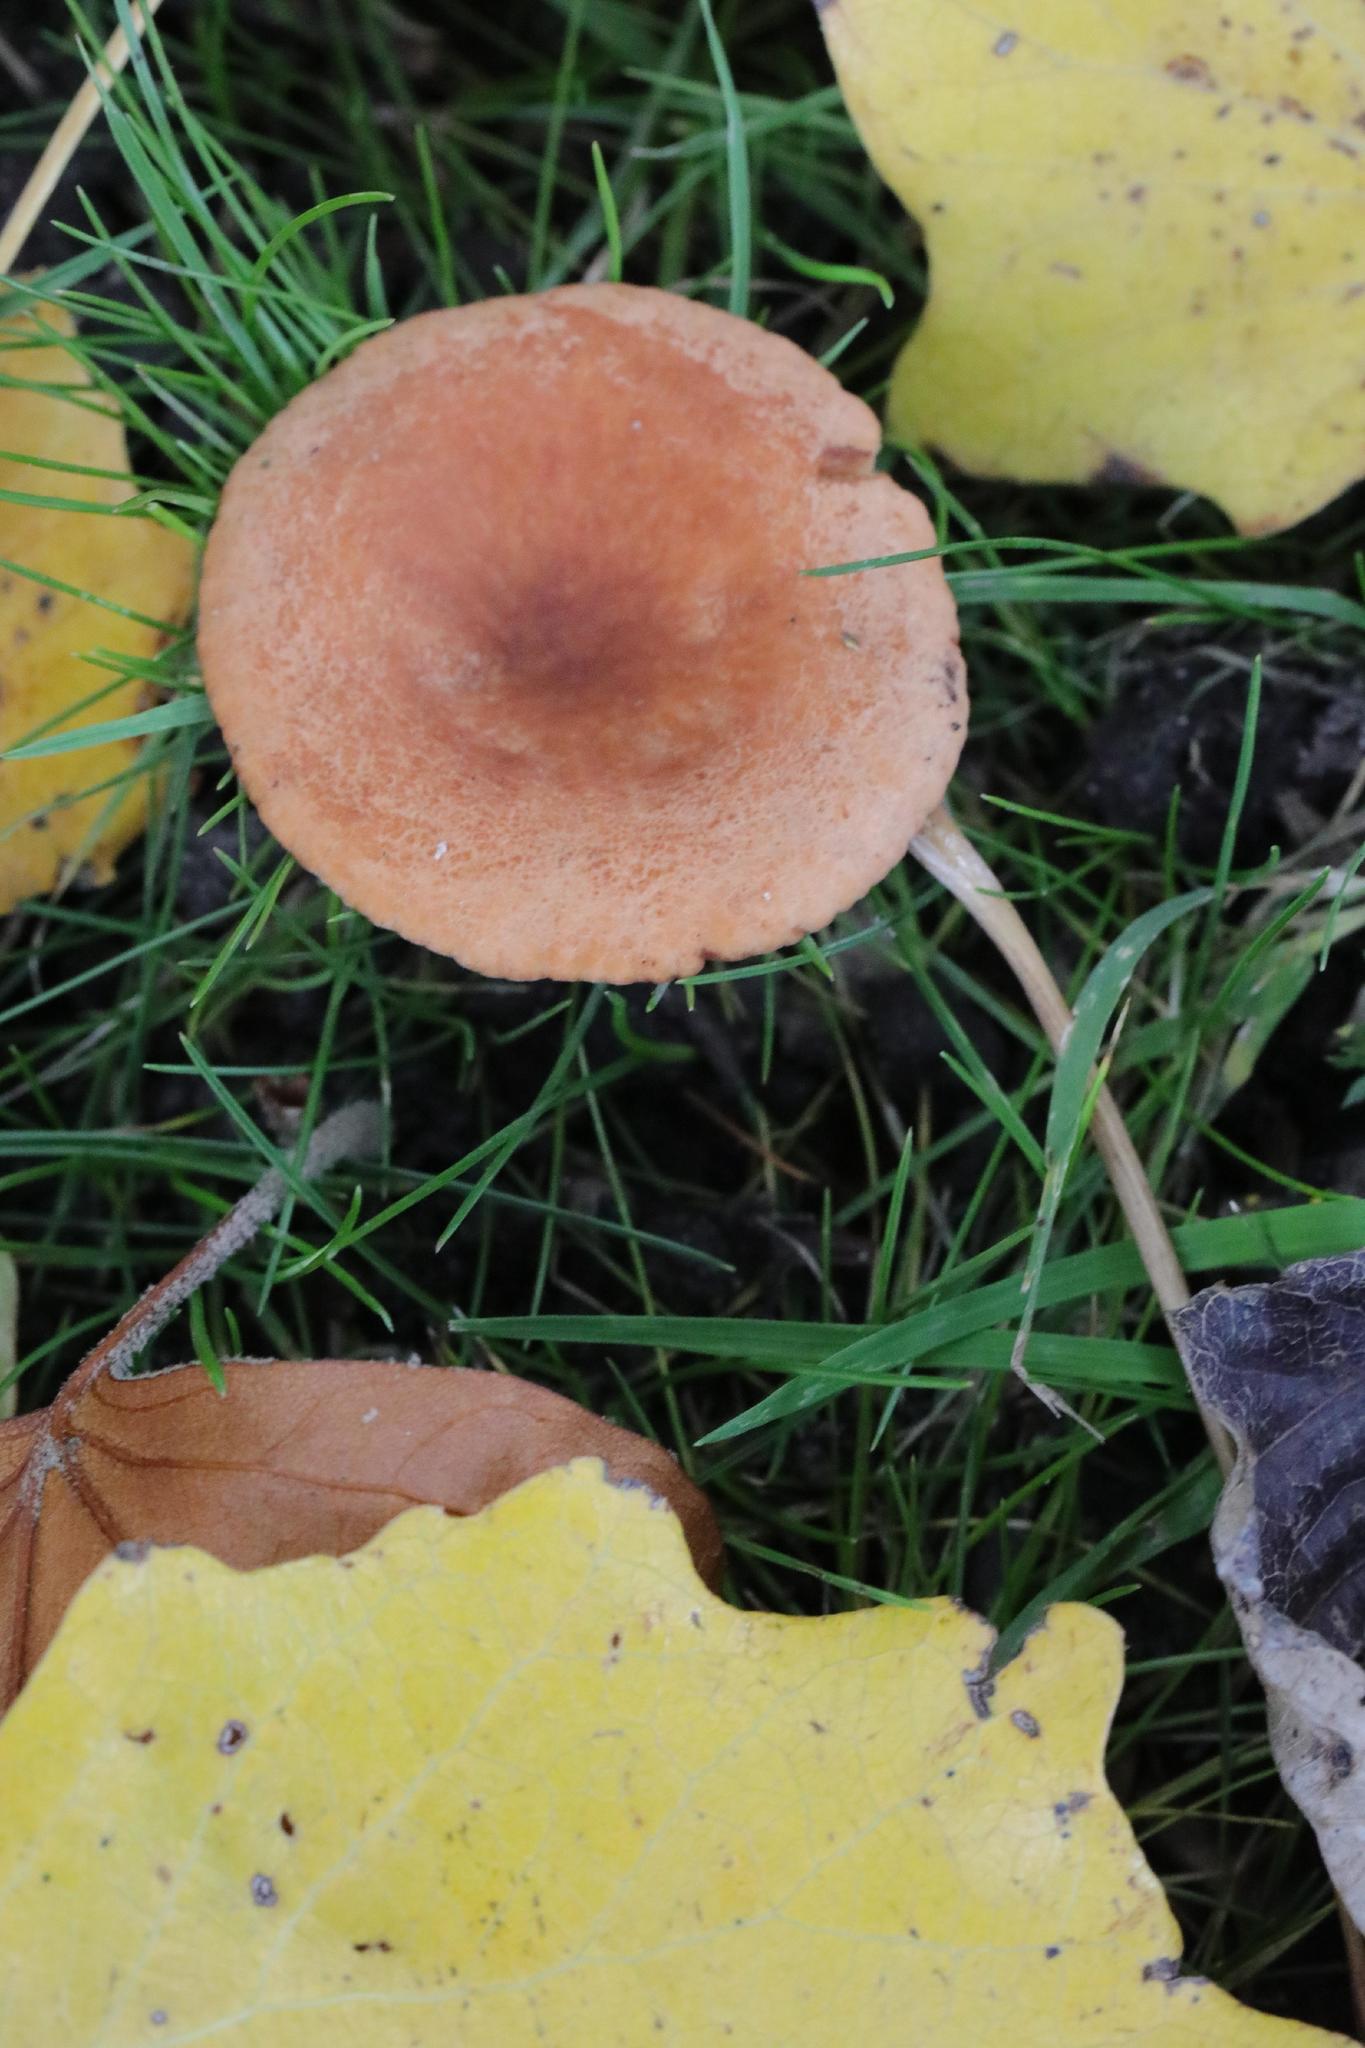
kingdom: Fungi
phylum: Basidiomycota
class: Agaricomycetes
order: Russulales
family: Russulaceae
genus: Lactarius
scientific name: Lactarius
